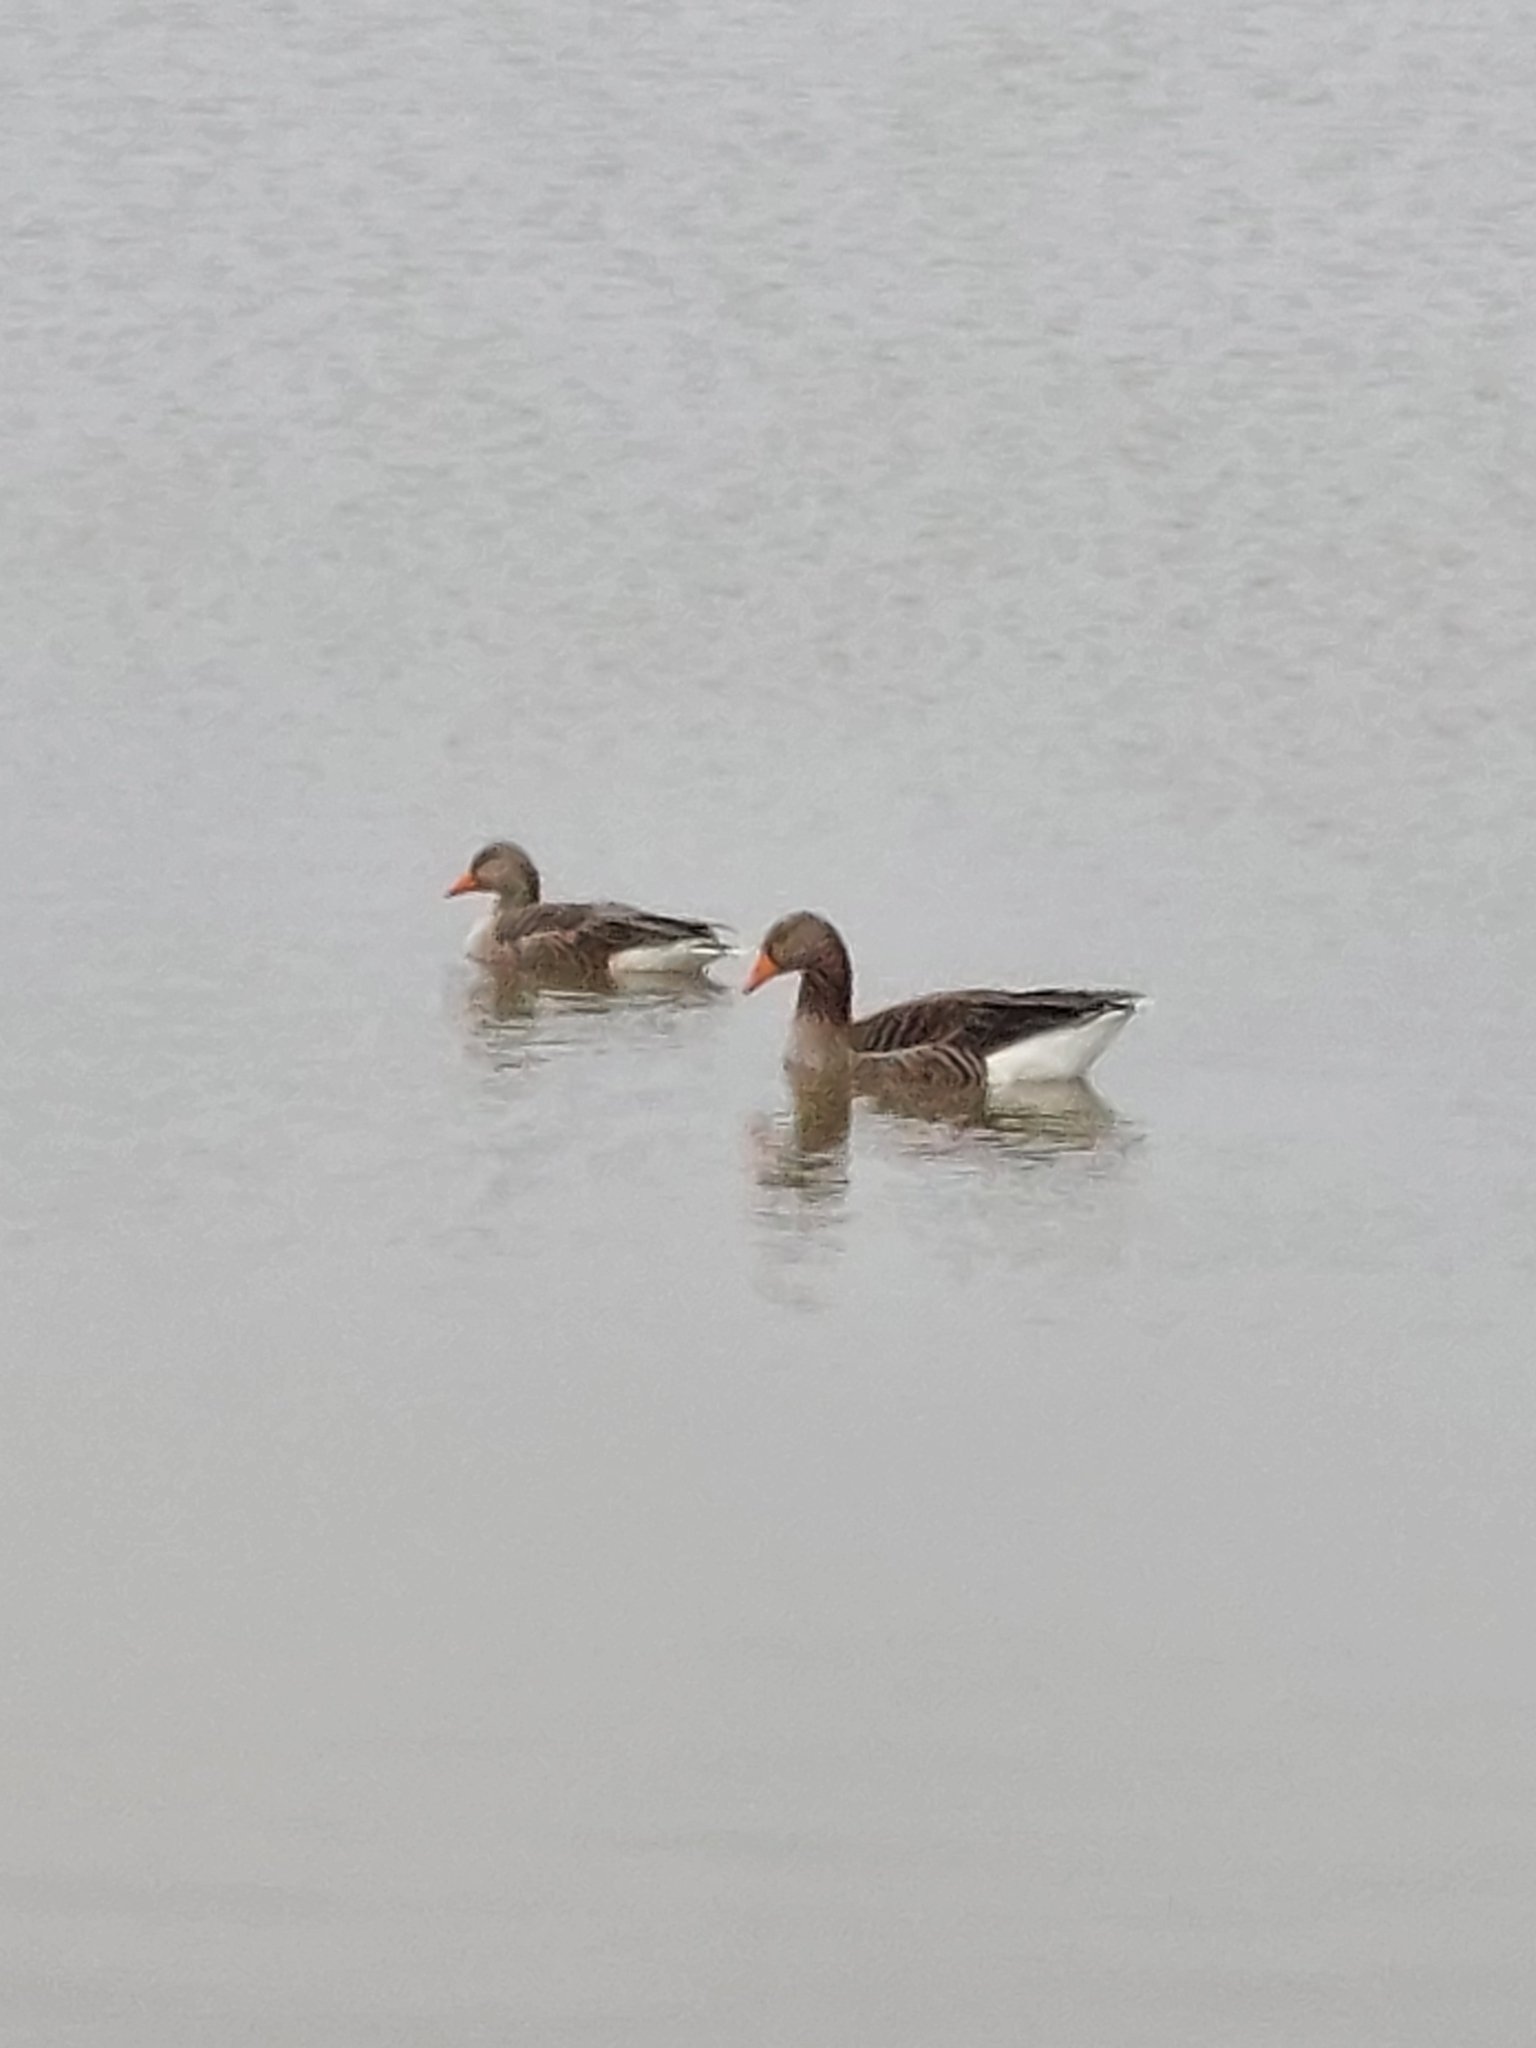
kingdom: Animalia
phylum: Chordata
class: Aves
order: Anseriformes
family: Anatidae
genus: Anser
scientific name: Anser anser
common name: Greylag goose
